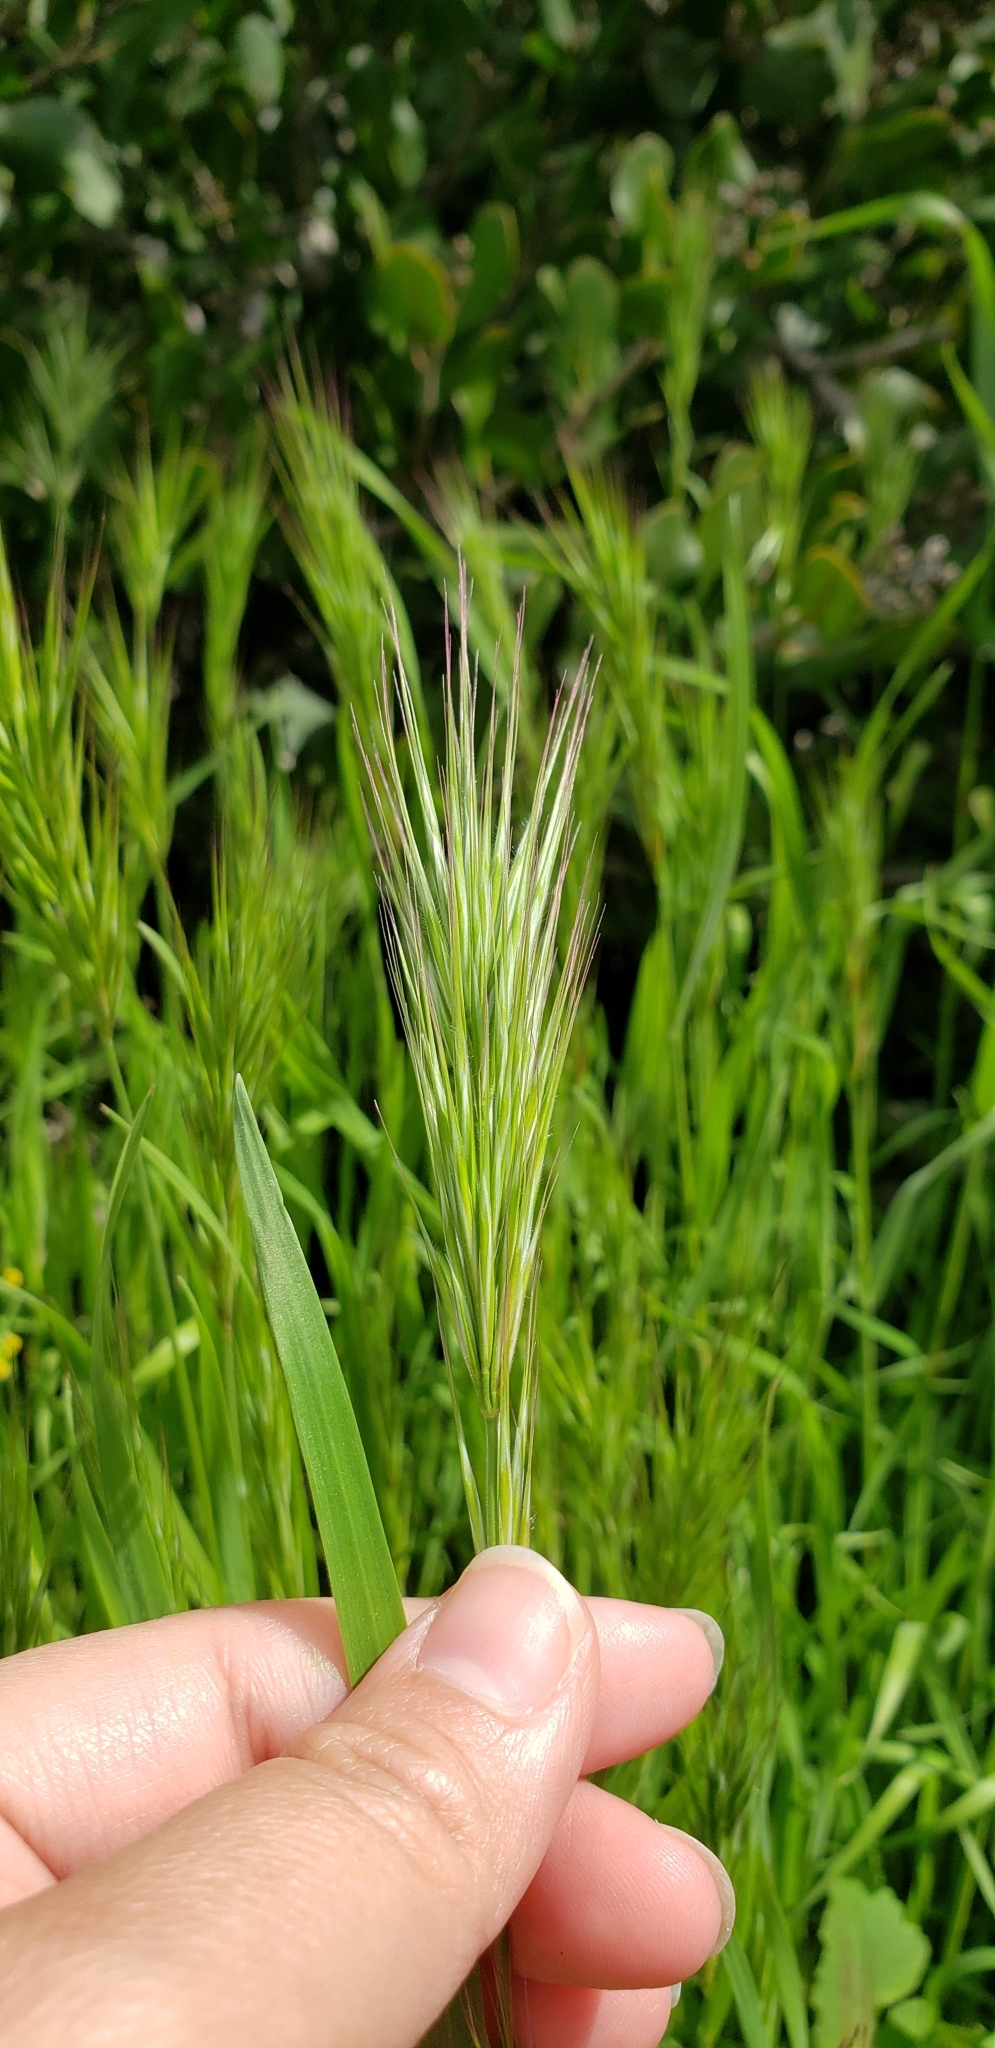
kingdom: Plantae
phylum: Tracheophyta
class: Liliopsida
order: Poales
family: Poaceae
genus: Bromus
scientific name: Bromus rubens
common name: Red brome
